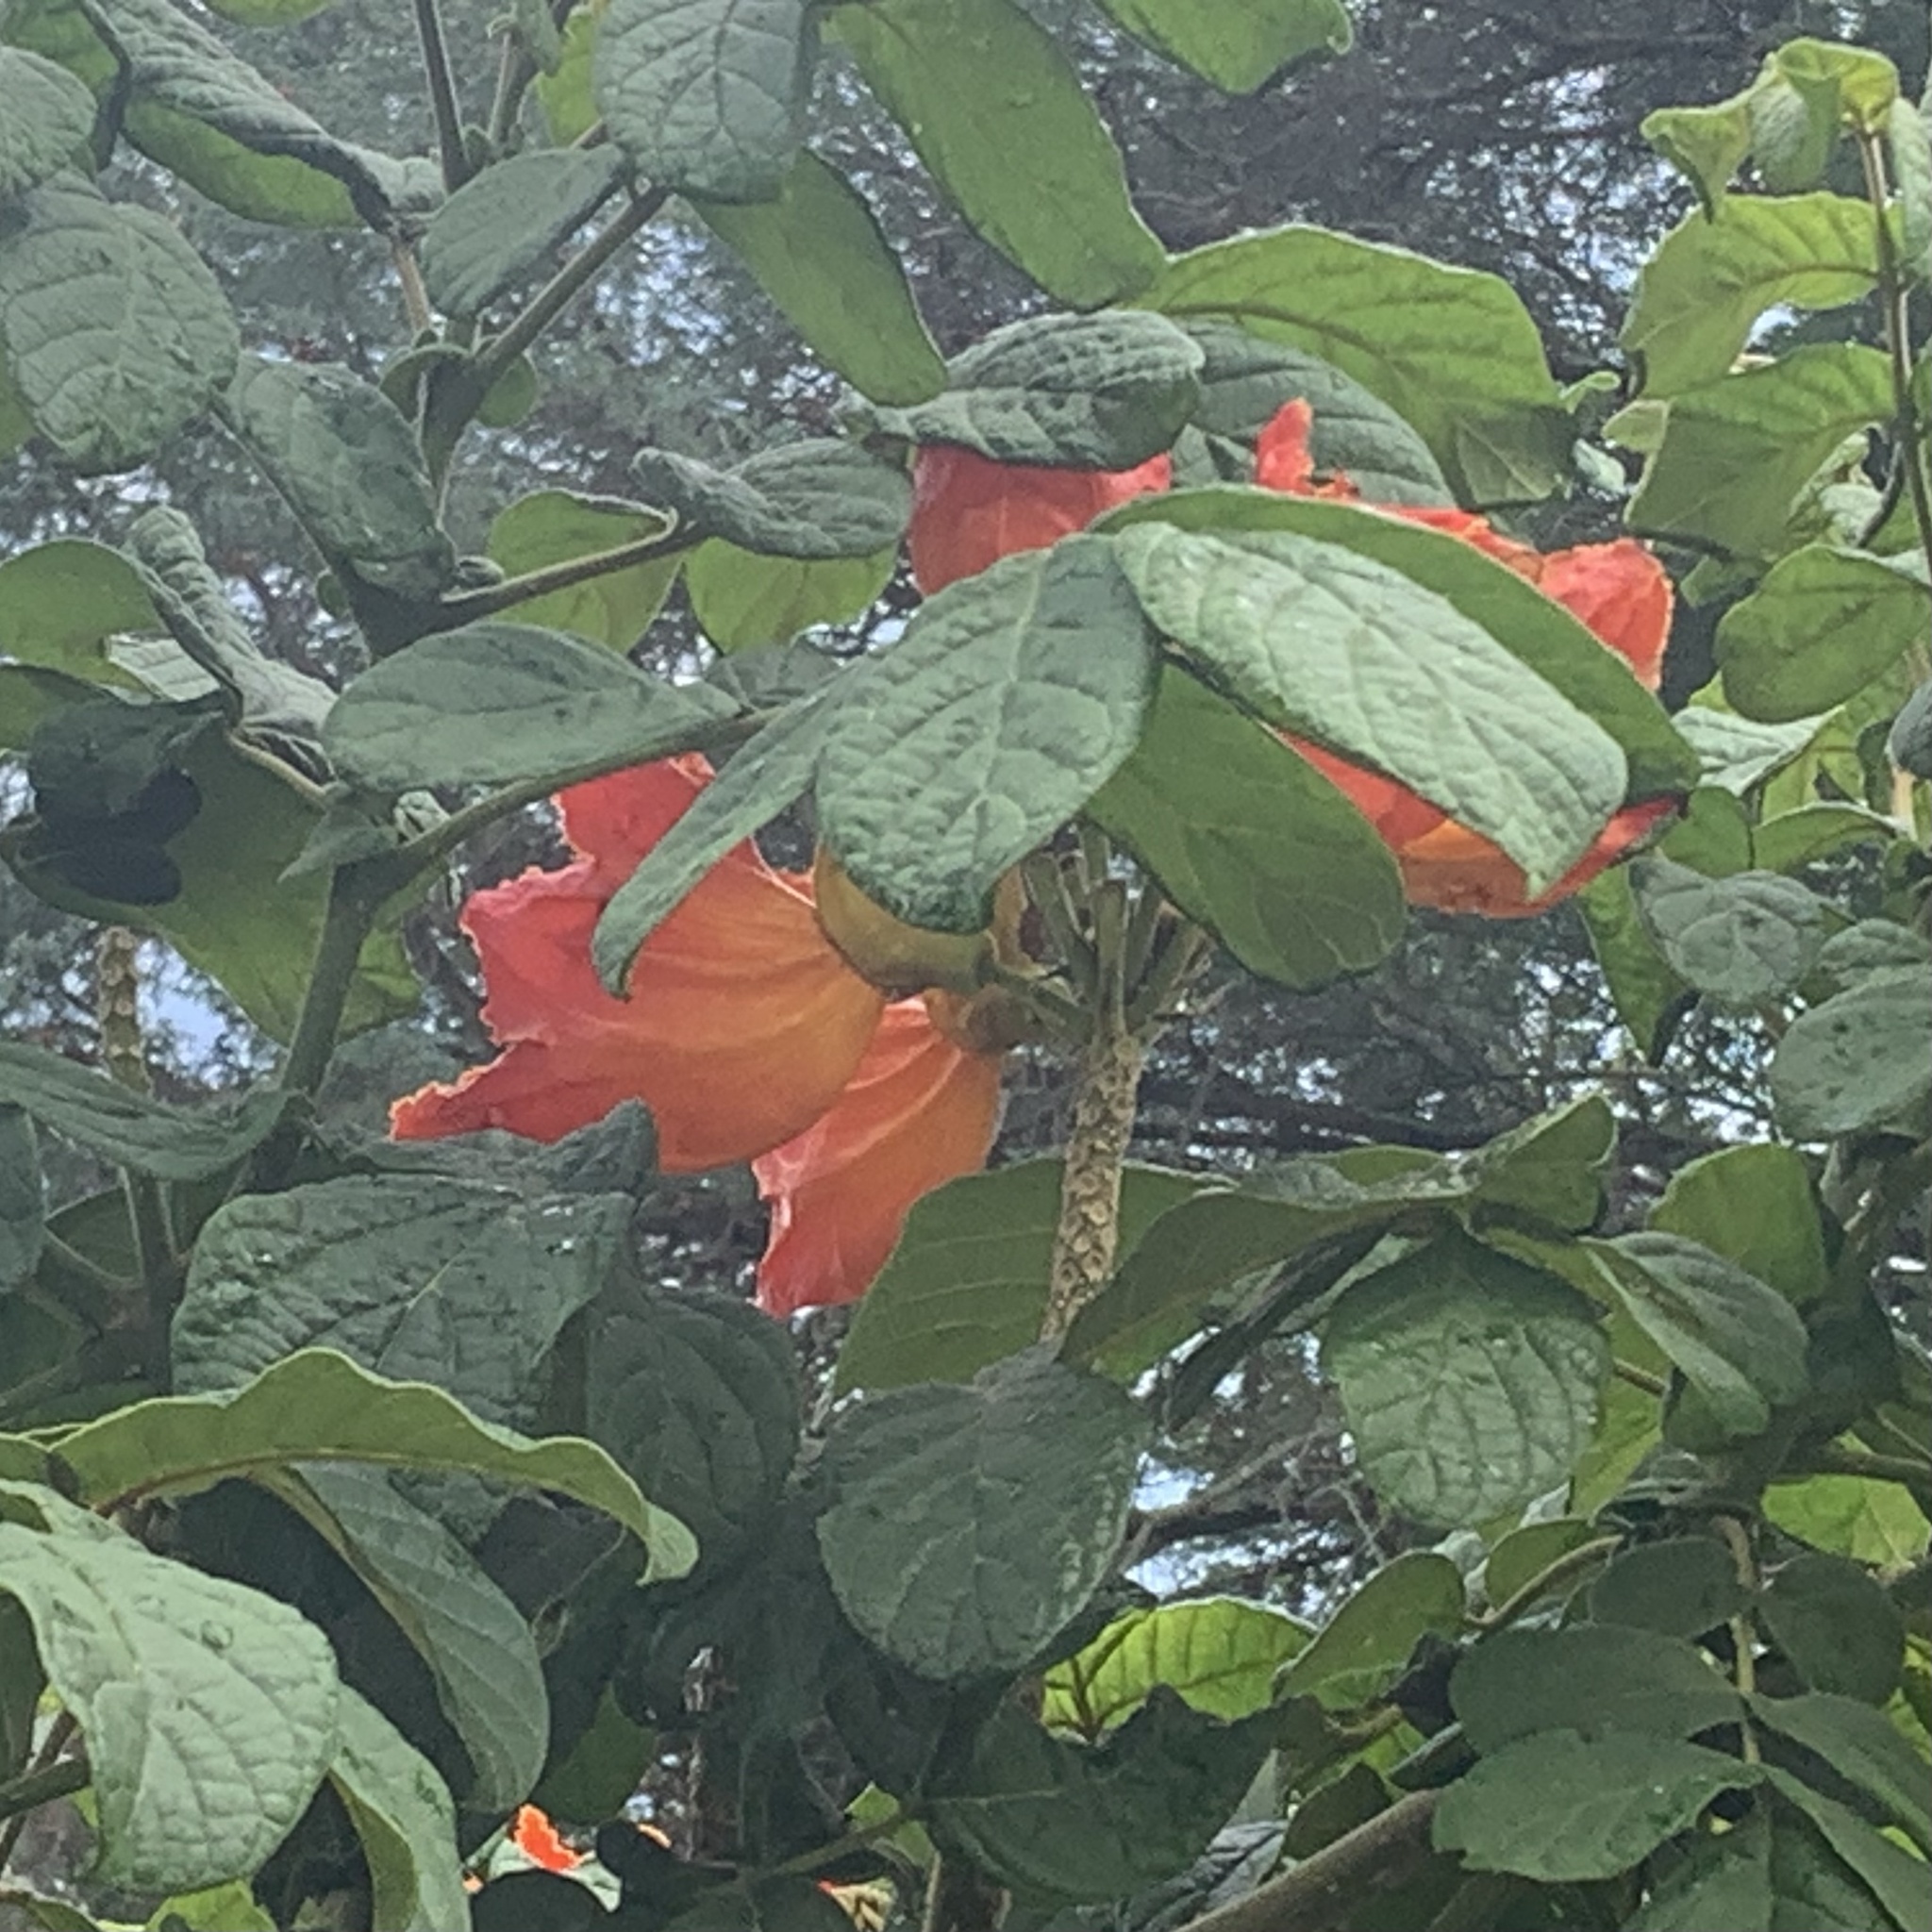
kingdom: Plantae
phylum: Tracheophyta
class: Magnoliopsida
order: Lamiales
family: Bignoniaceae
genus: Spathodea
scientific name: Spathodea campanulata
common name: African tuliptree
